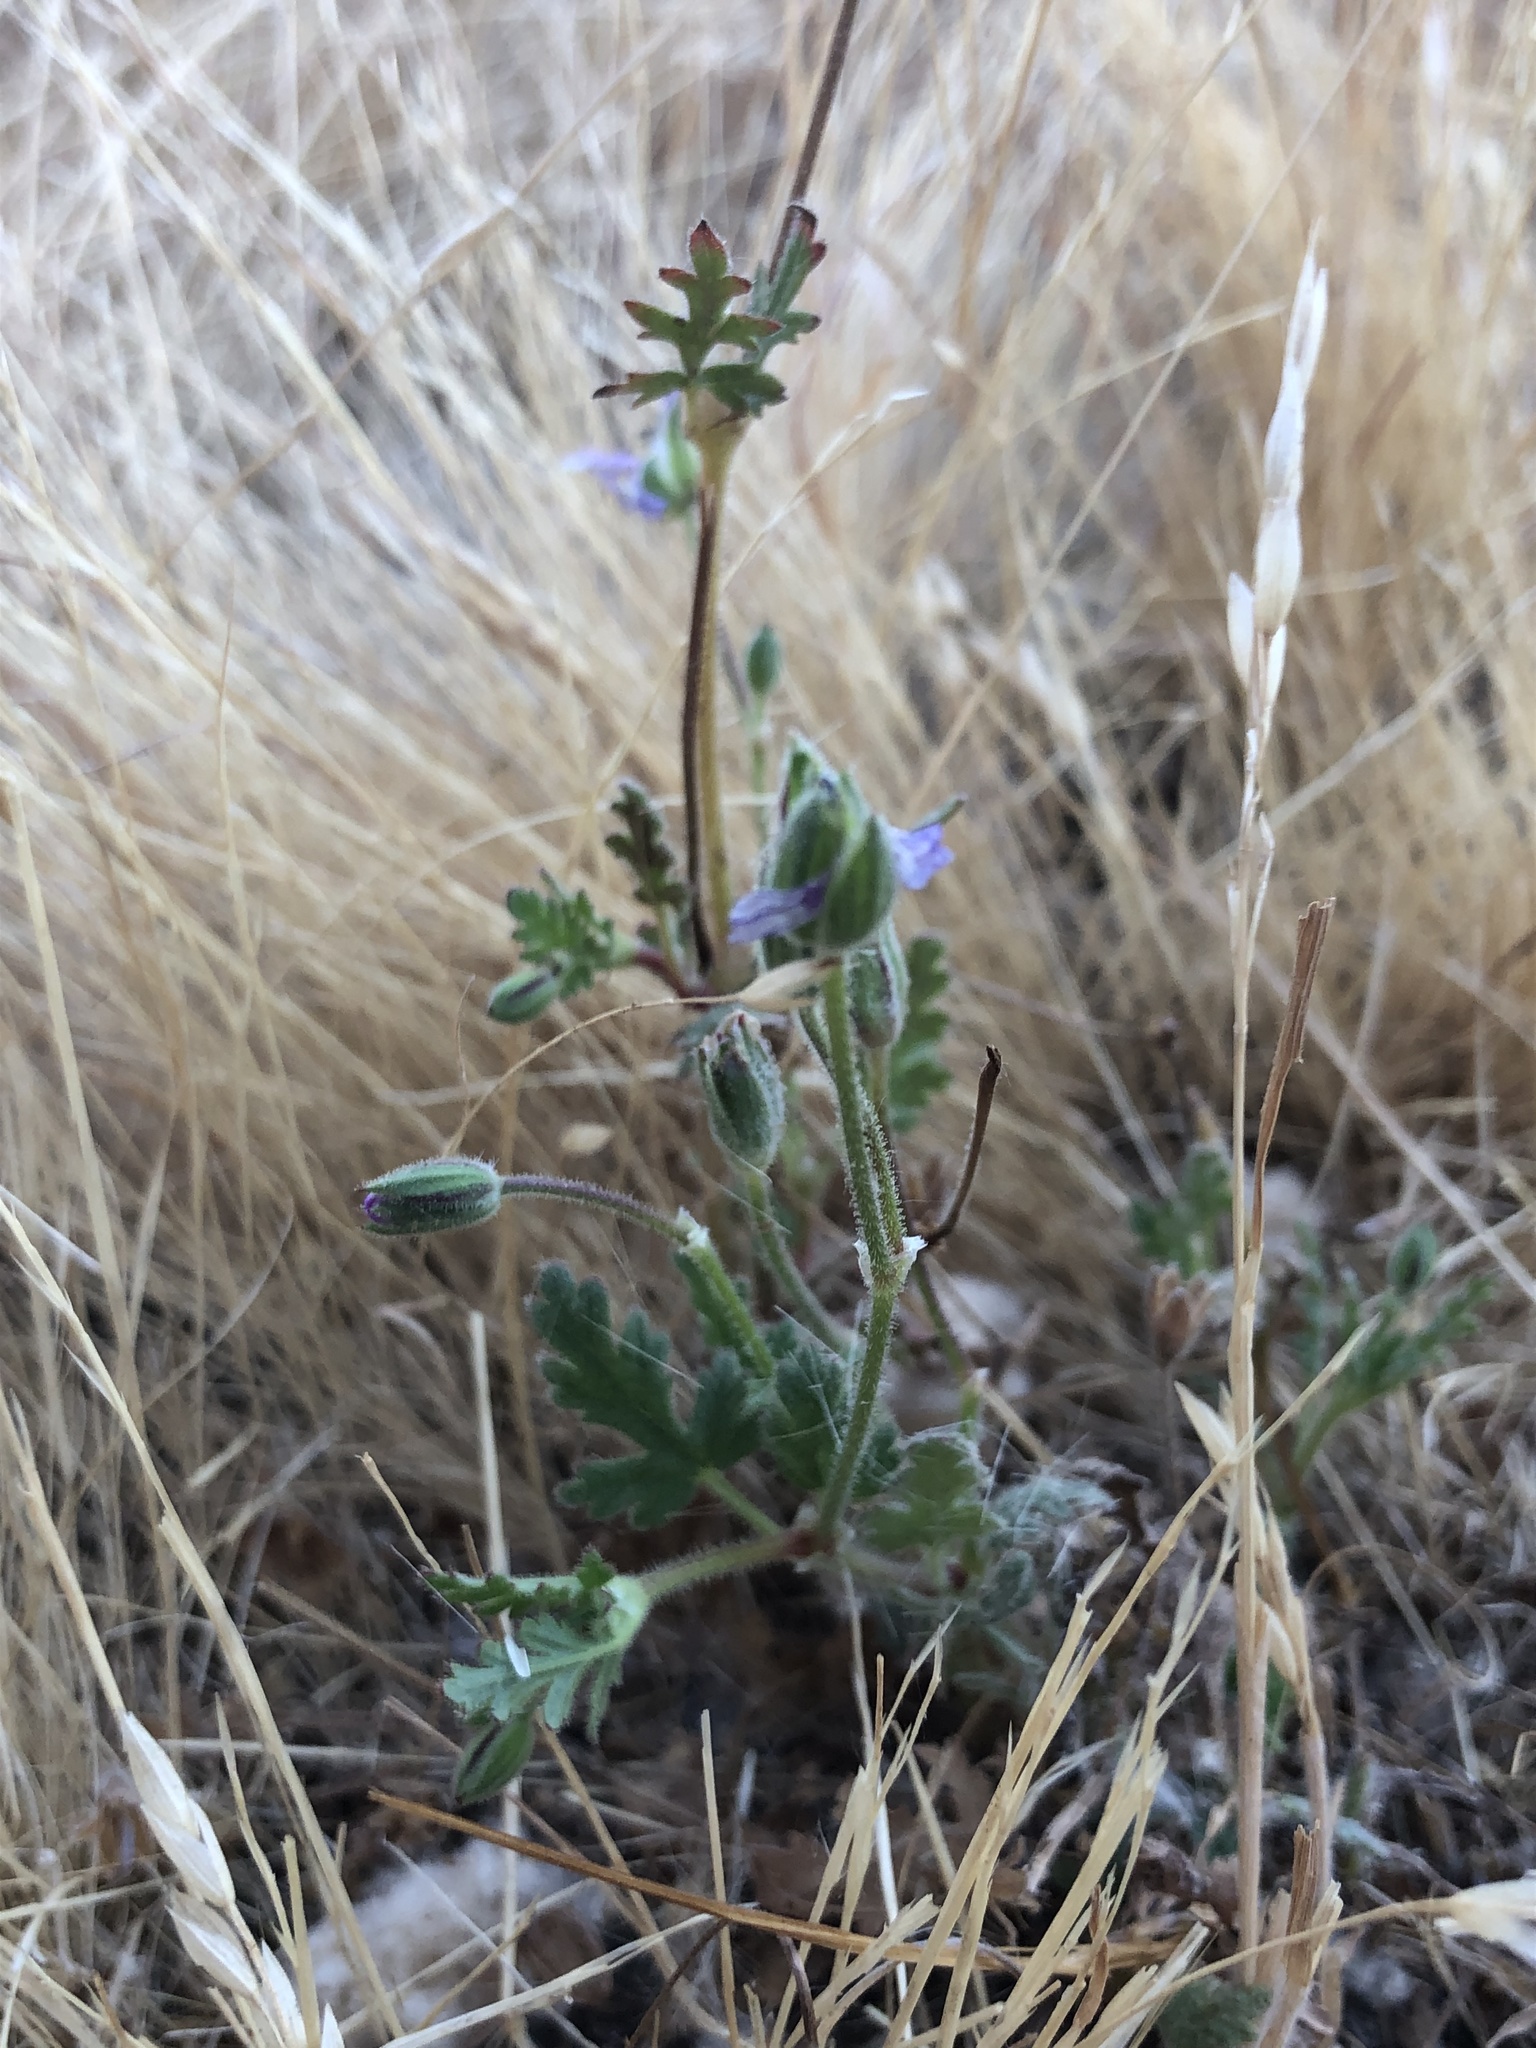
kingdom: Plantae
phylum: Tracheophyta
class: Magnoliopsida
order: Geraniales
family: Geraniaceae
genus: Erodium
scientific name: Erodium botrys
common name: Mediterranean stork's-bill
